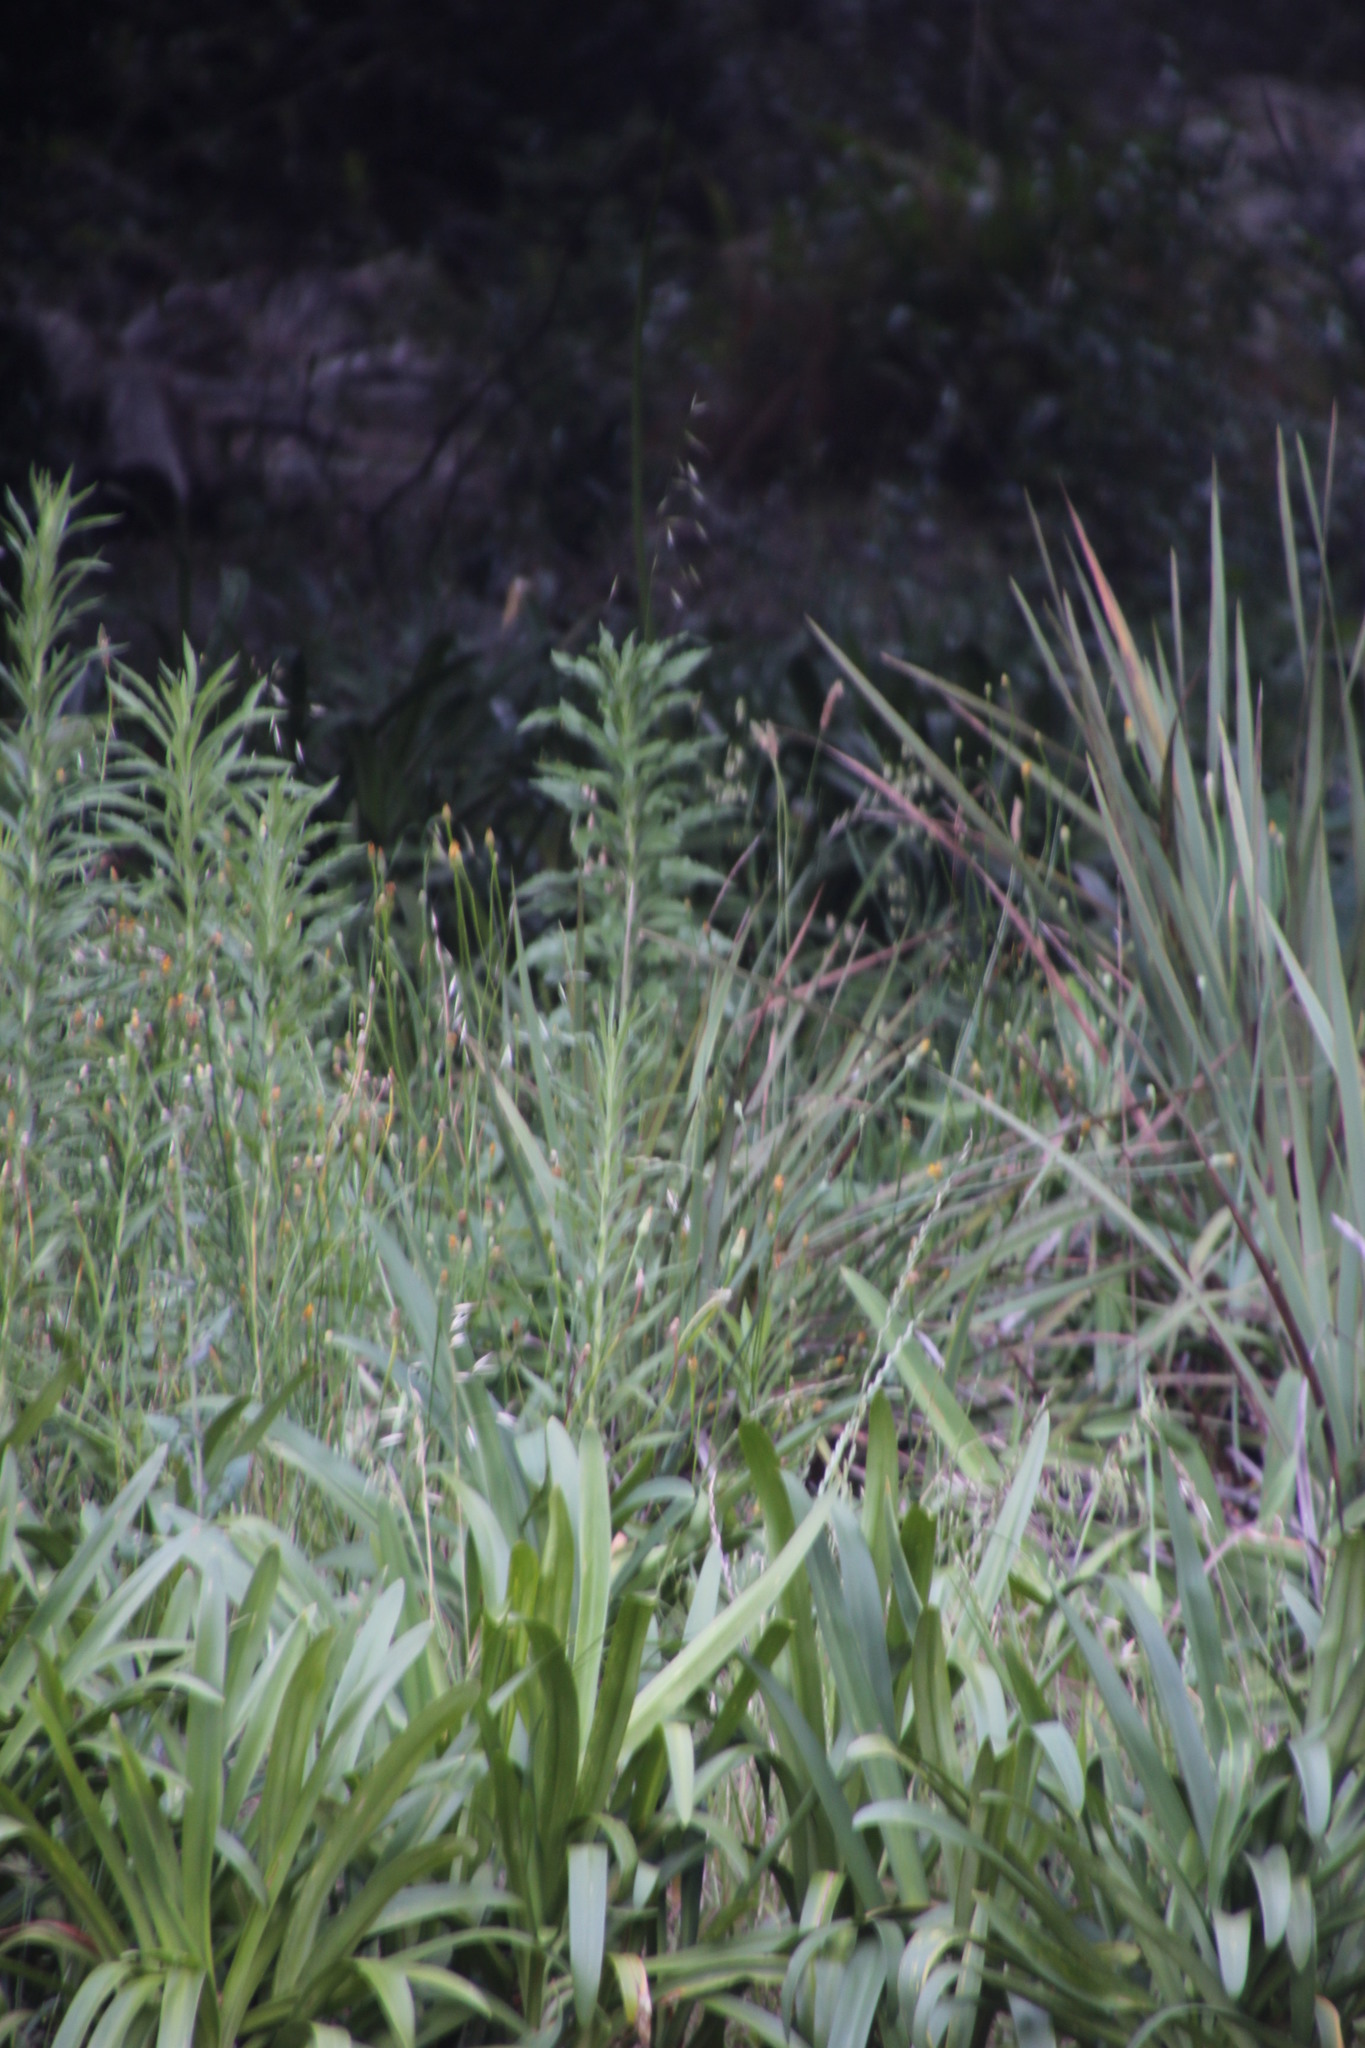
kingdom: Plantae
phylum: Tracheophyta
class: Magnoliopsida
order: Asterales
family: Asteraceae
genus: Erigeron
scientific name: Erigeron sumatrensis
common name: Daisy
